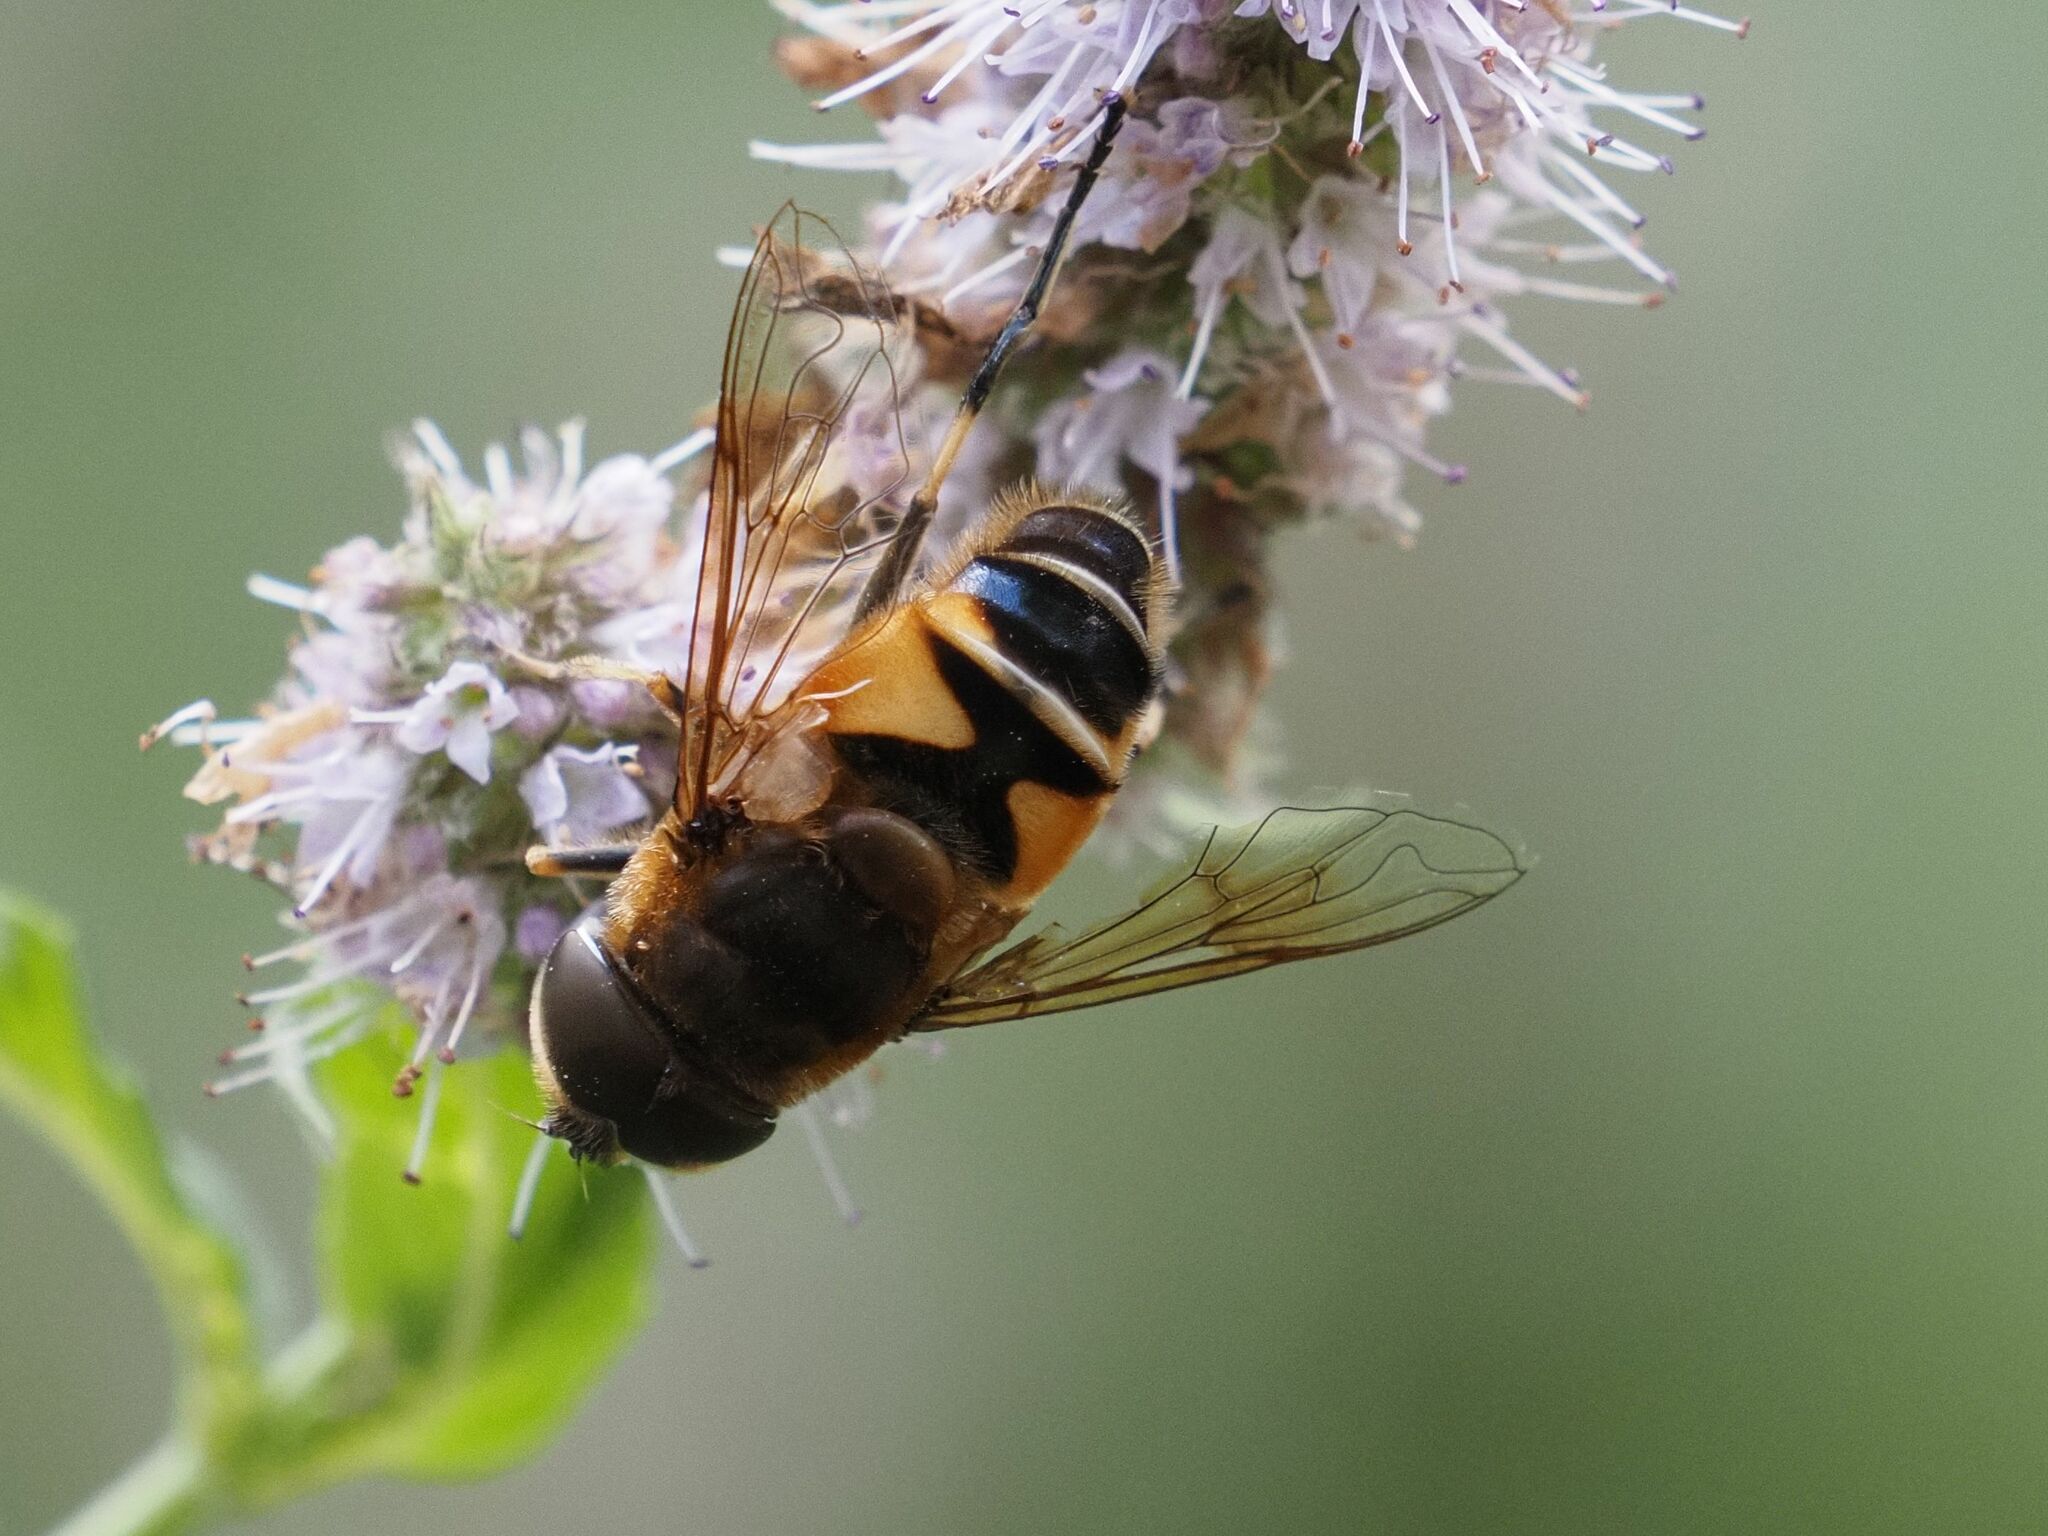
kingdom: Animalia
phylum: Arthropoda
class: Insecta
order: Diptera
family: Syrphidae
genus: Eristalis
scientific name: Eristalis pertinax
